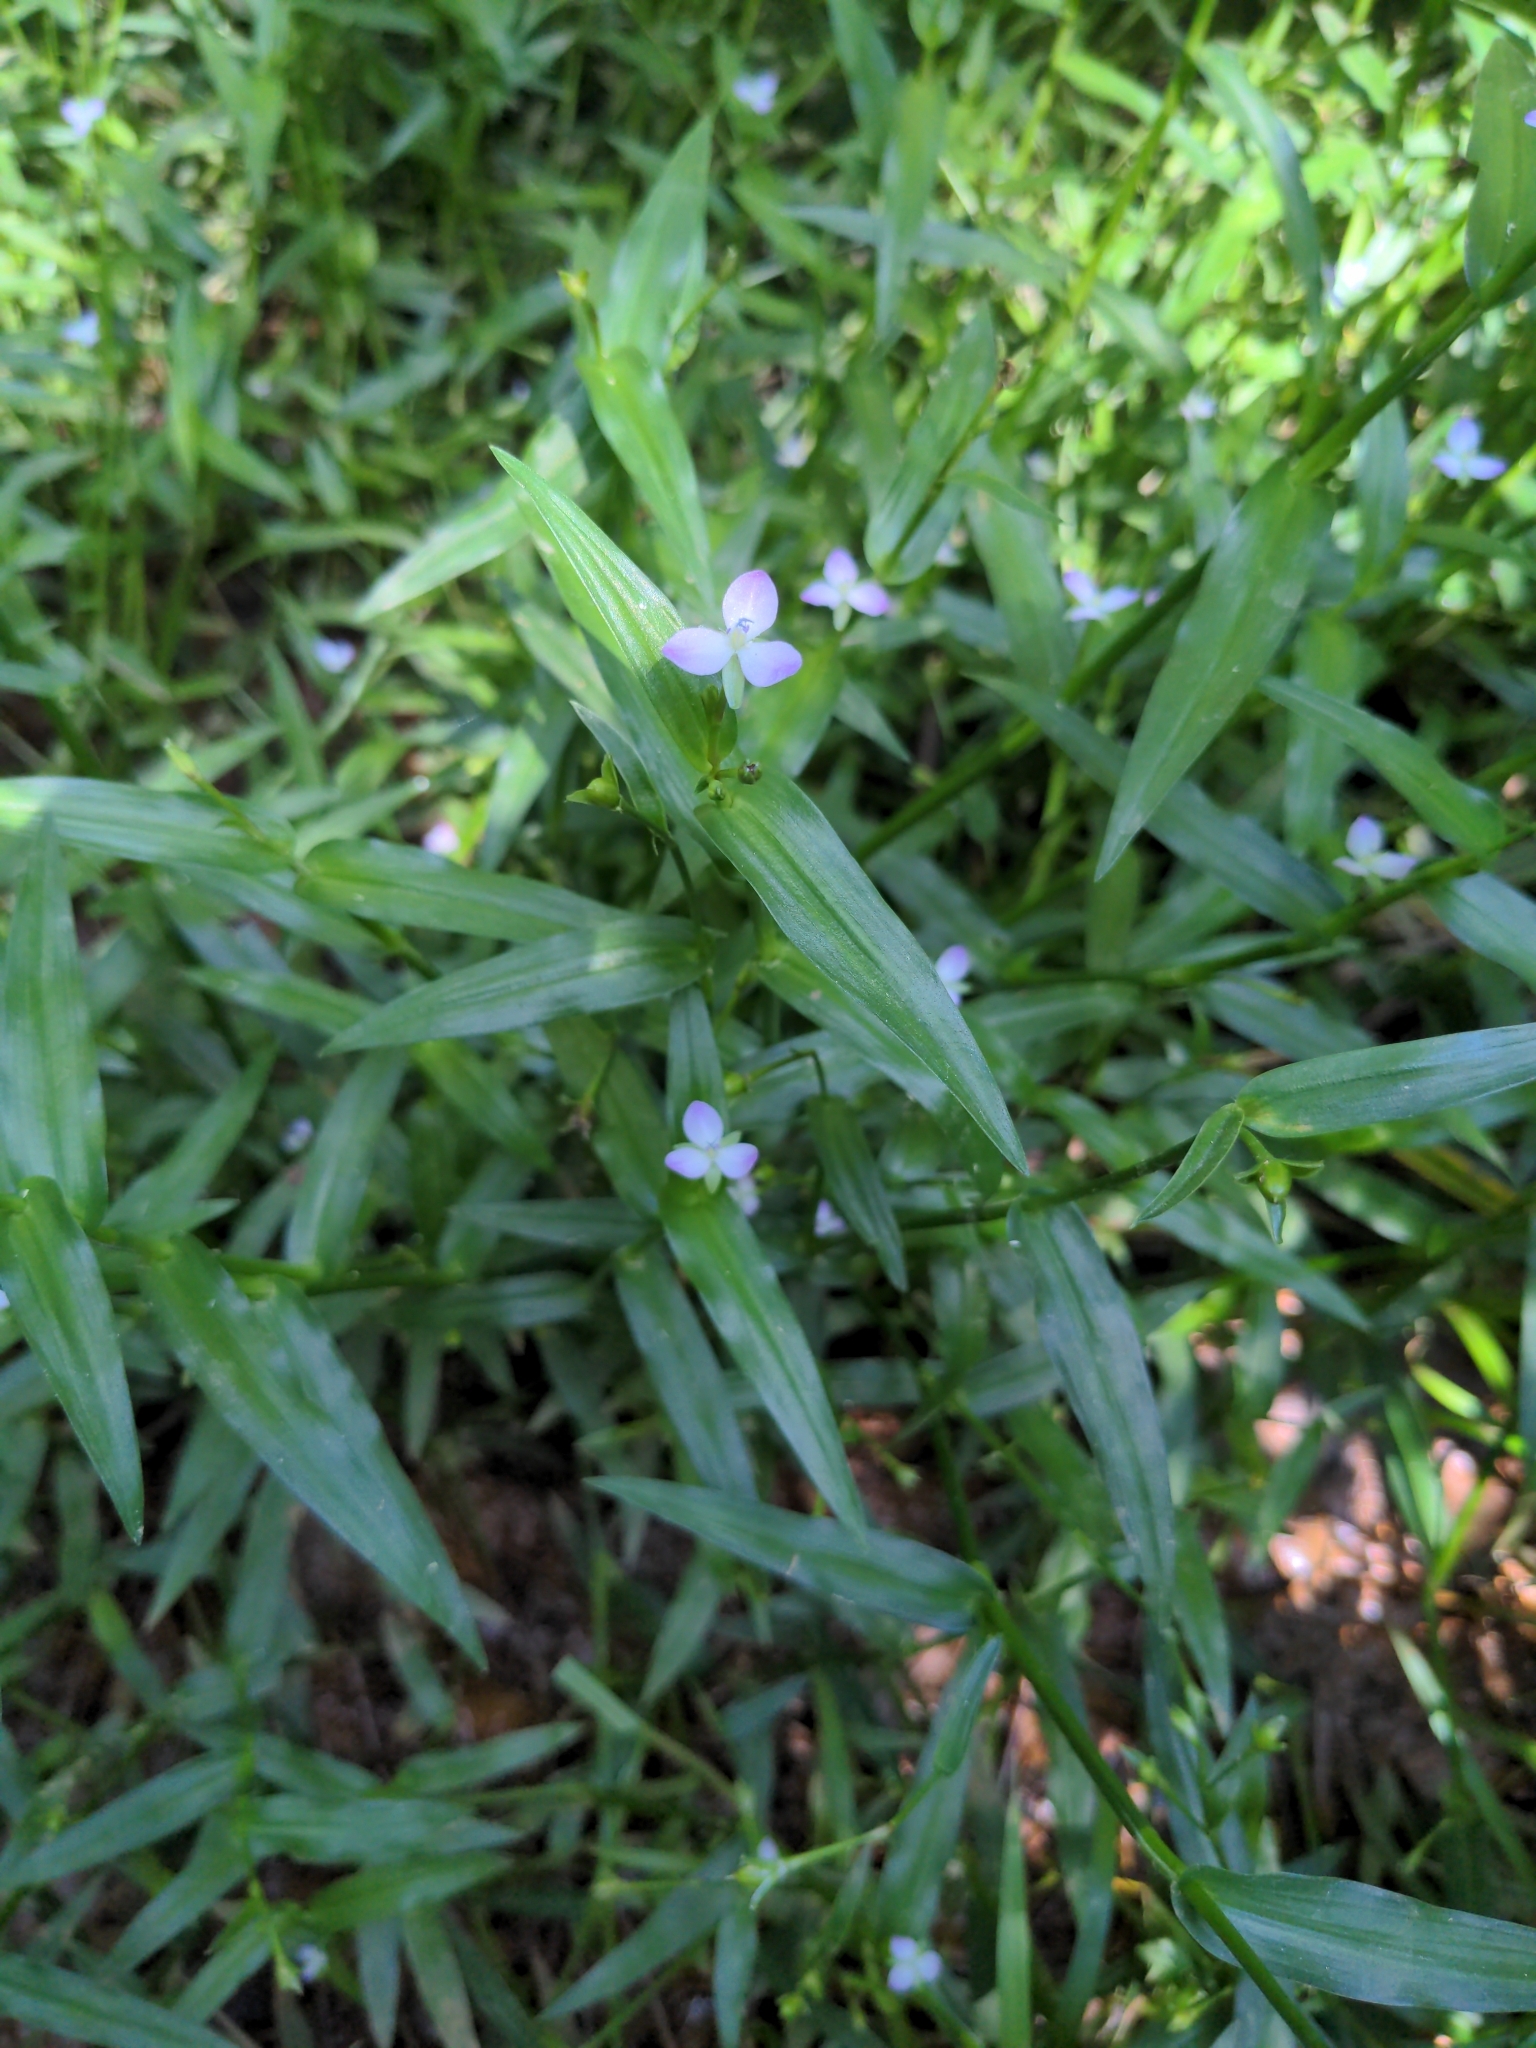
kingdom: Plantae
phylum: Tracheophyta
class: Liliopsida
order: Commelinales
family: Commelinaceae
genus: Murdannia
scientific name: Murdannia keisak
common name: Wartremoving herb
